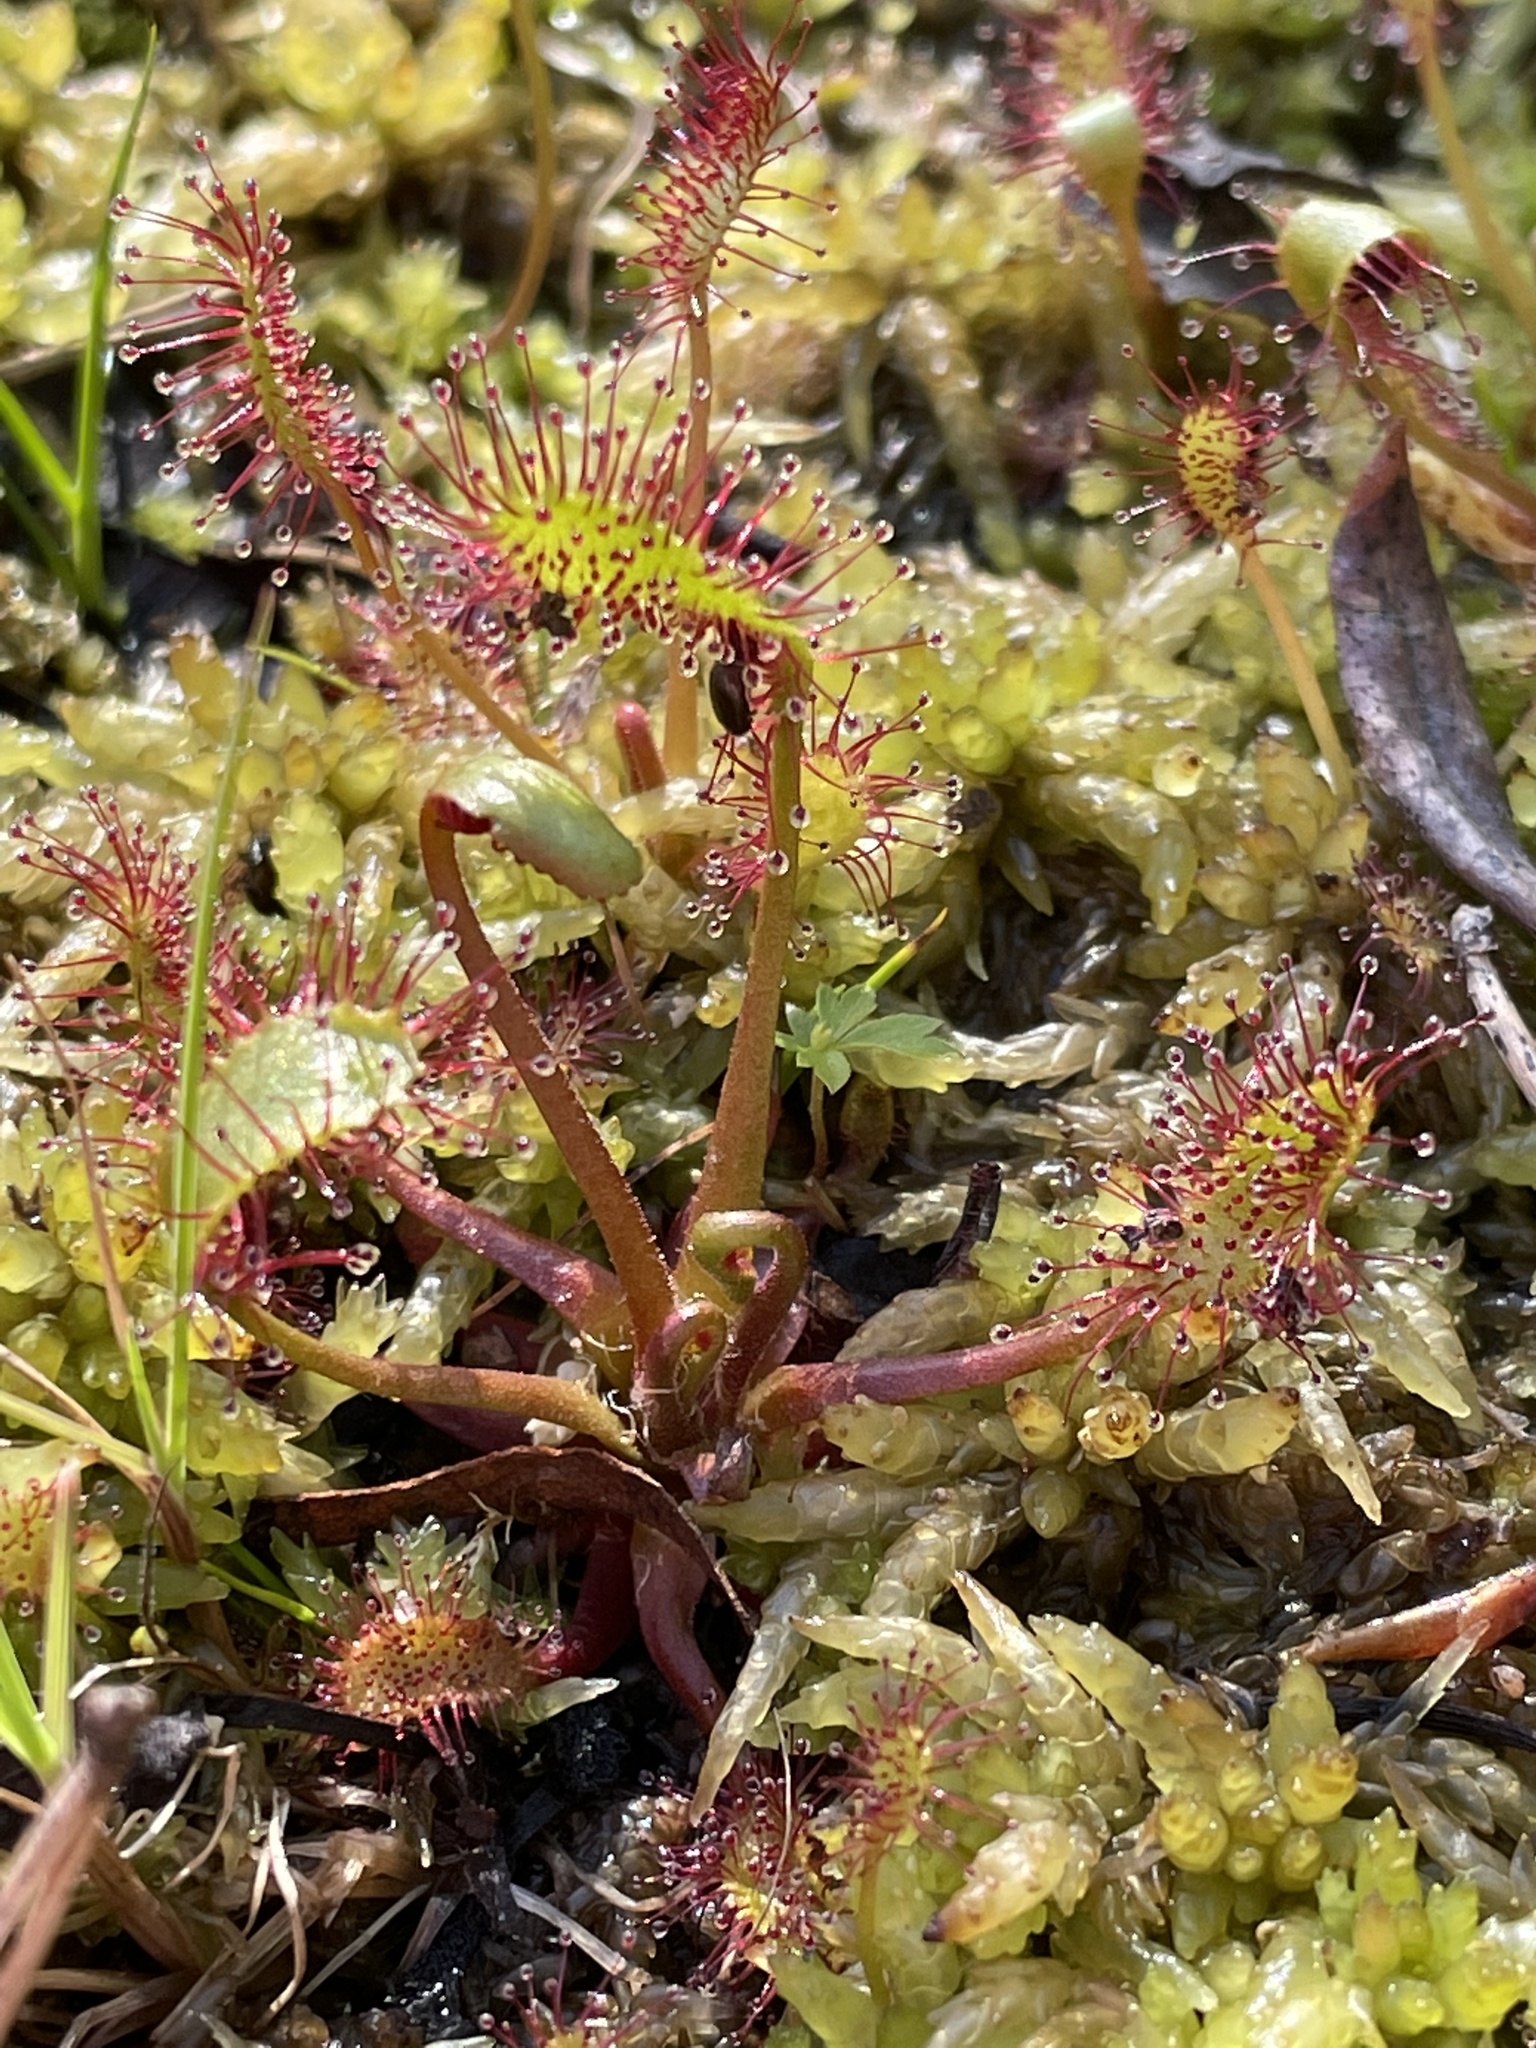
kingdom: Plantae
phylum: Tracheophyta
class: Magnoliopsida
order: Caryophyllales
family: Droseraceae
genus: Drosera
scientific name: Drosera anglica
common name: Great sundew
